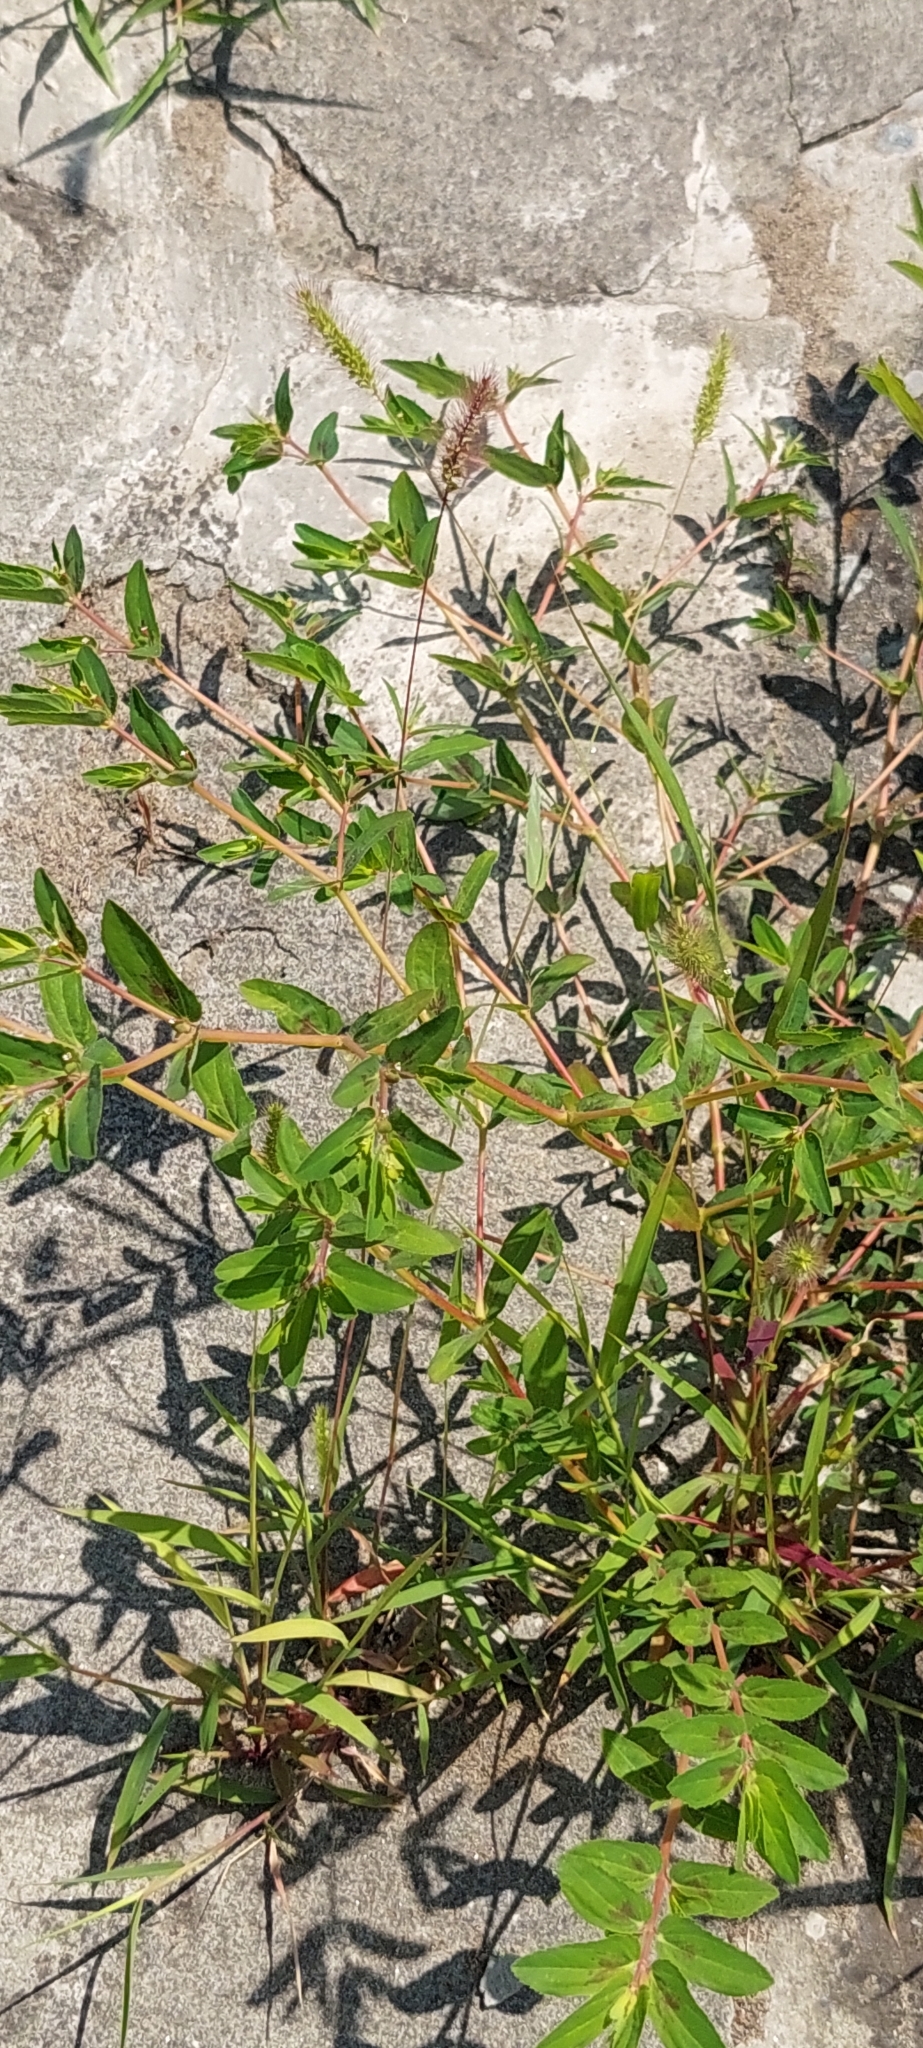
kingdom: Plantae
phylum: Tracheophyta
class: Magnoliopsida
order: Malpighiales
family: Euphorbiaceae
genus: Euphorbia
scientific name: Euphorbia nutans
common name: Eyebane
